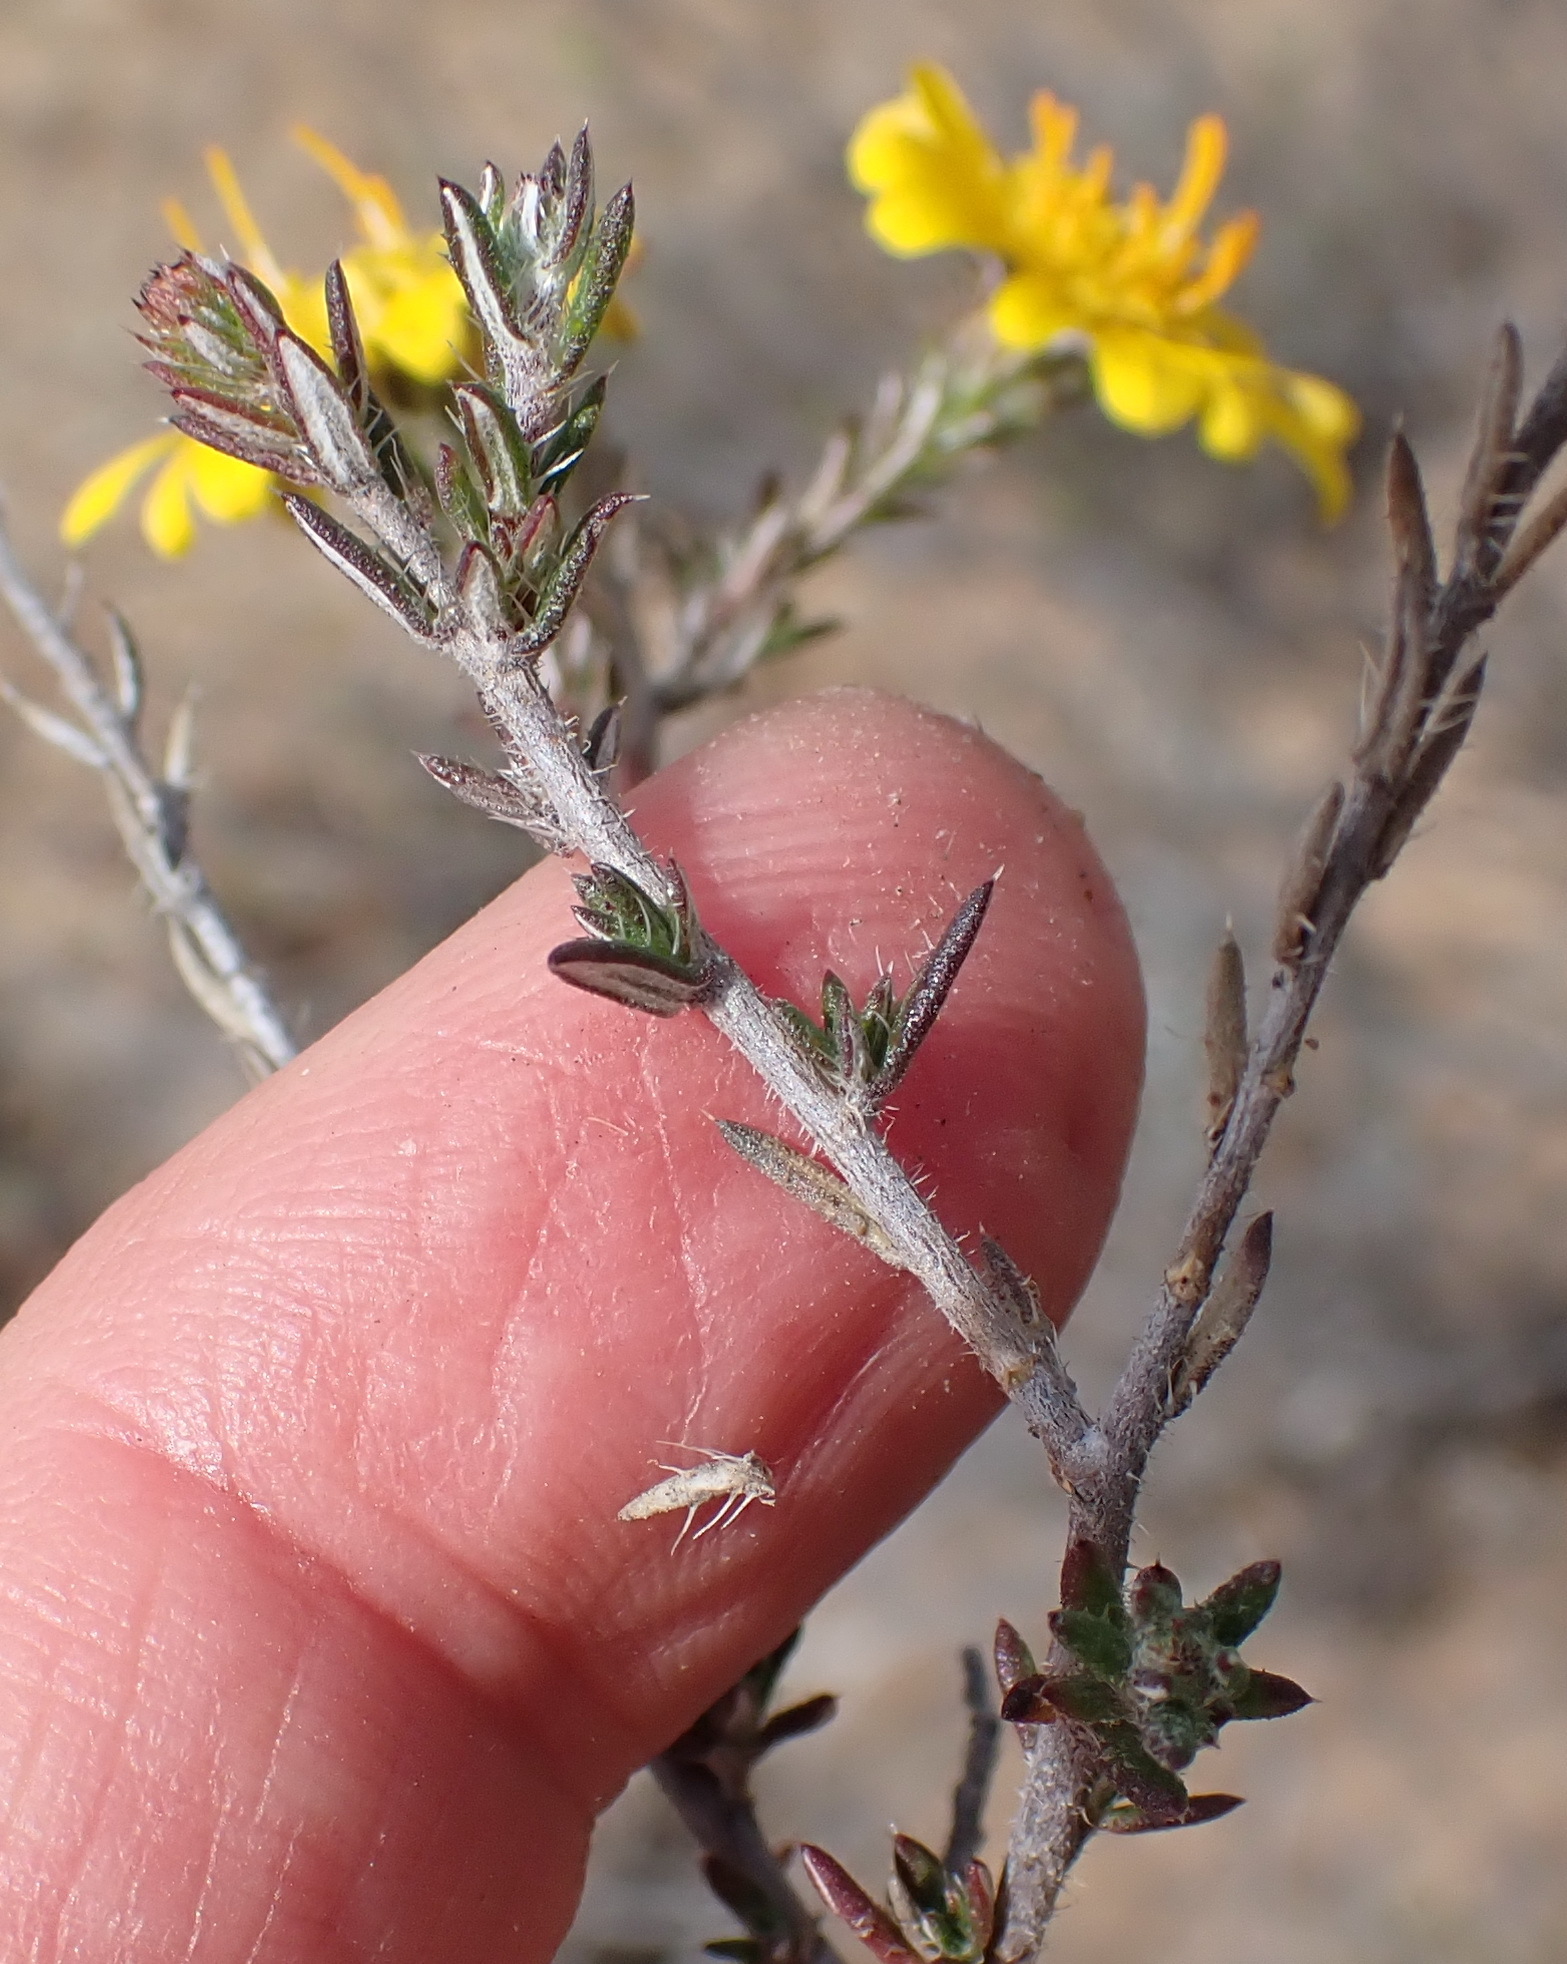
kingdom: Plantae
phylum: Tracheophyta
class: Magnoliopsida
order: Asterales
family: Asteraceae
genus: Gorteria
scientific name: Gorteria alienata
